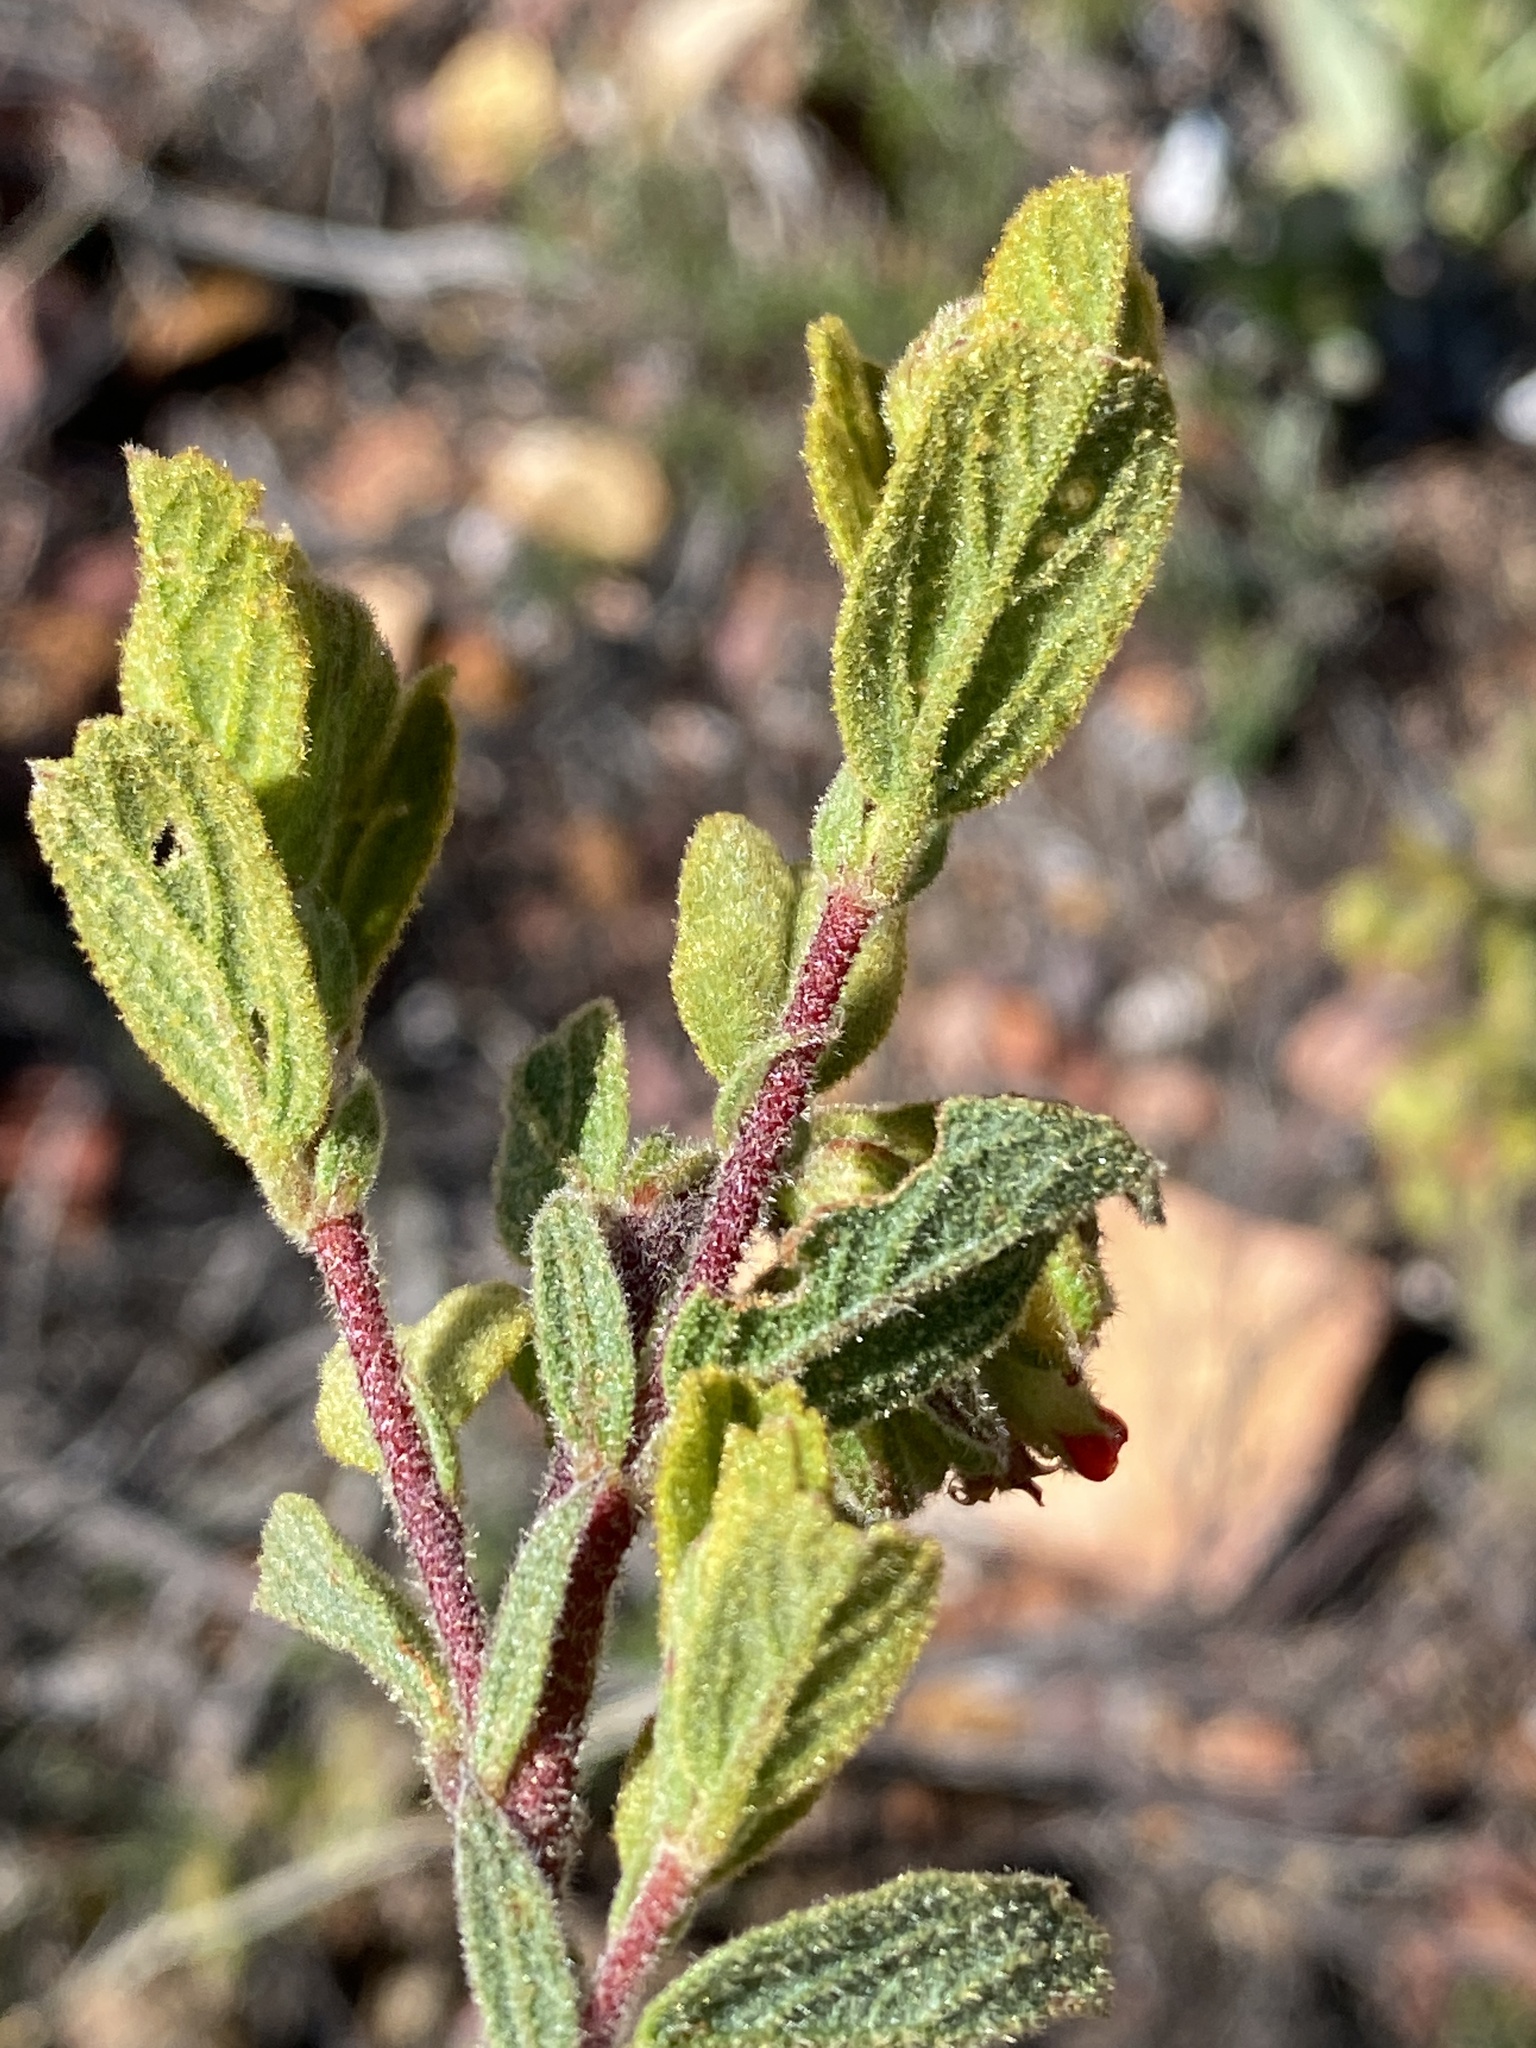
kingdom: Plantae
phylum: Tracheophyta
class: Magnoliopsida
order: Malvales
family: Malvaceae
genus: Hermannia
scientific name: Hermannia salviifolia
